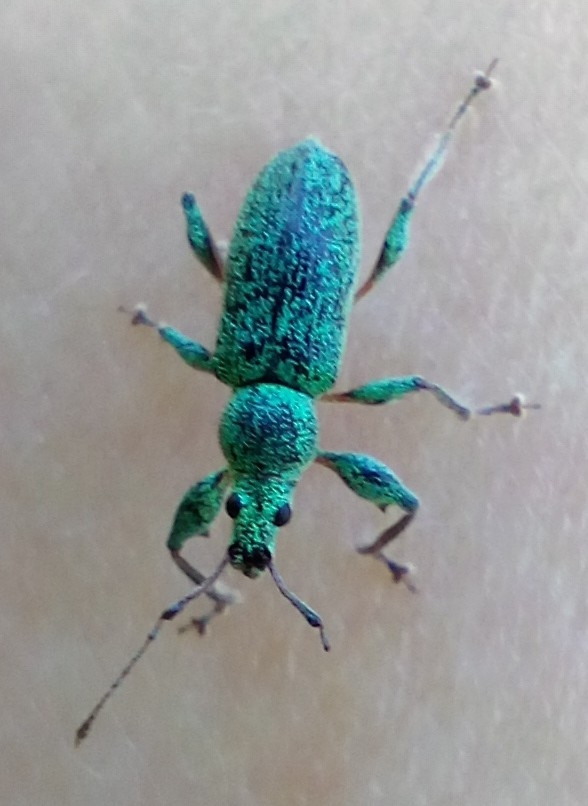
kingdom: Animalia
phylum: Arthropoda
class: Insecta
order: Coleoptera
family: Curculionidae
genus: Phyllobius
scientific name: Phyllobius arborator
